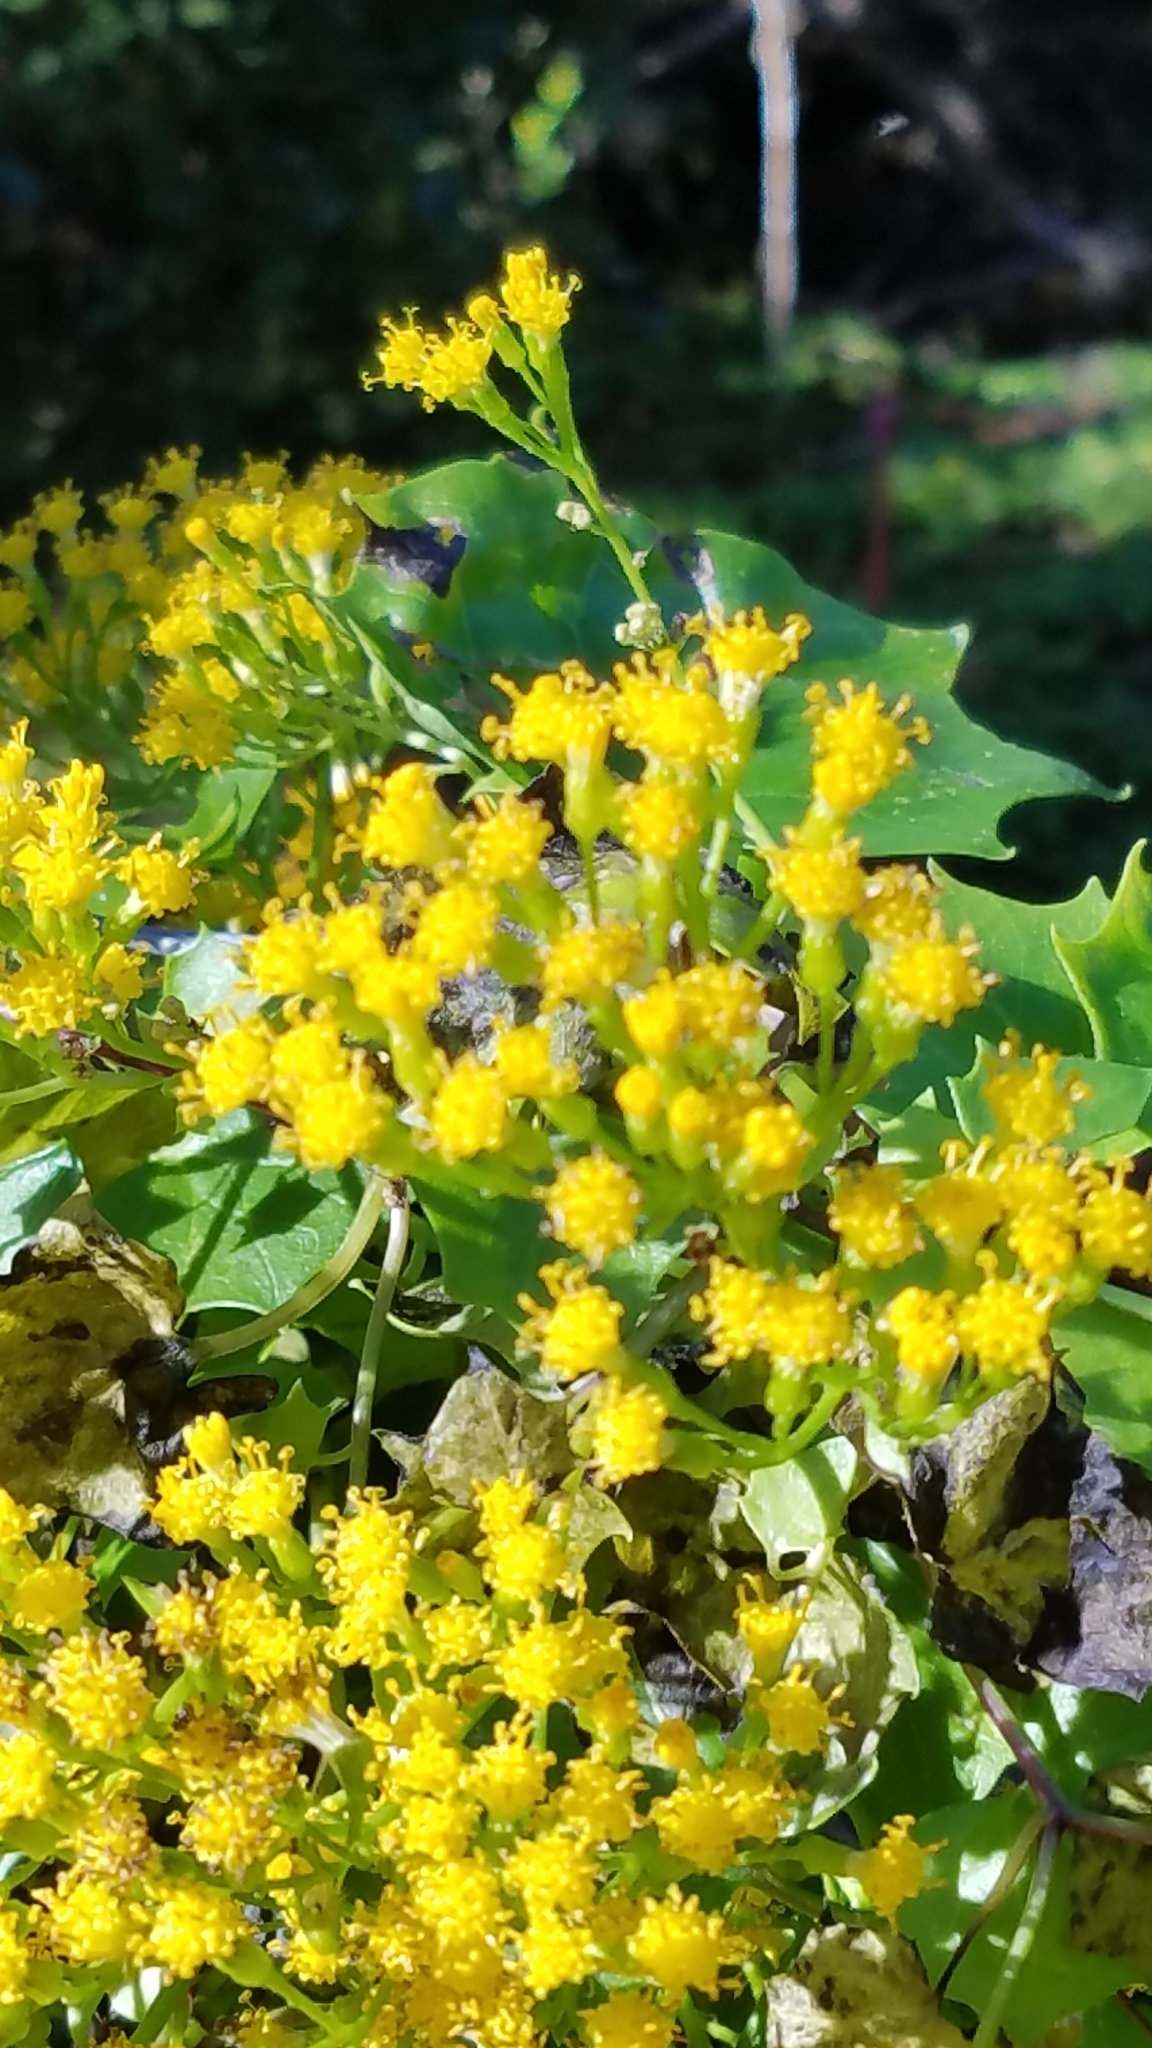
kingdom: Plantae
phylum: Tracheophyta
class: Magnoliopsida
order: Asterales
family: Asteraceae
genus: Delairea
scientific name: Delairea odorata
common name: Cape-ivy
